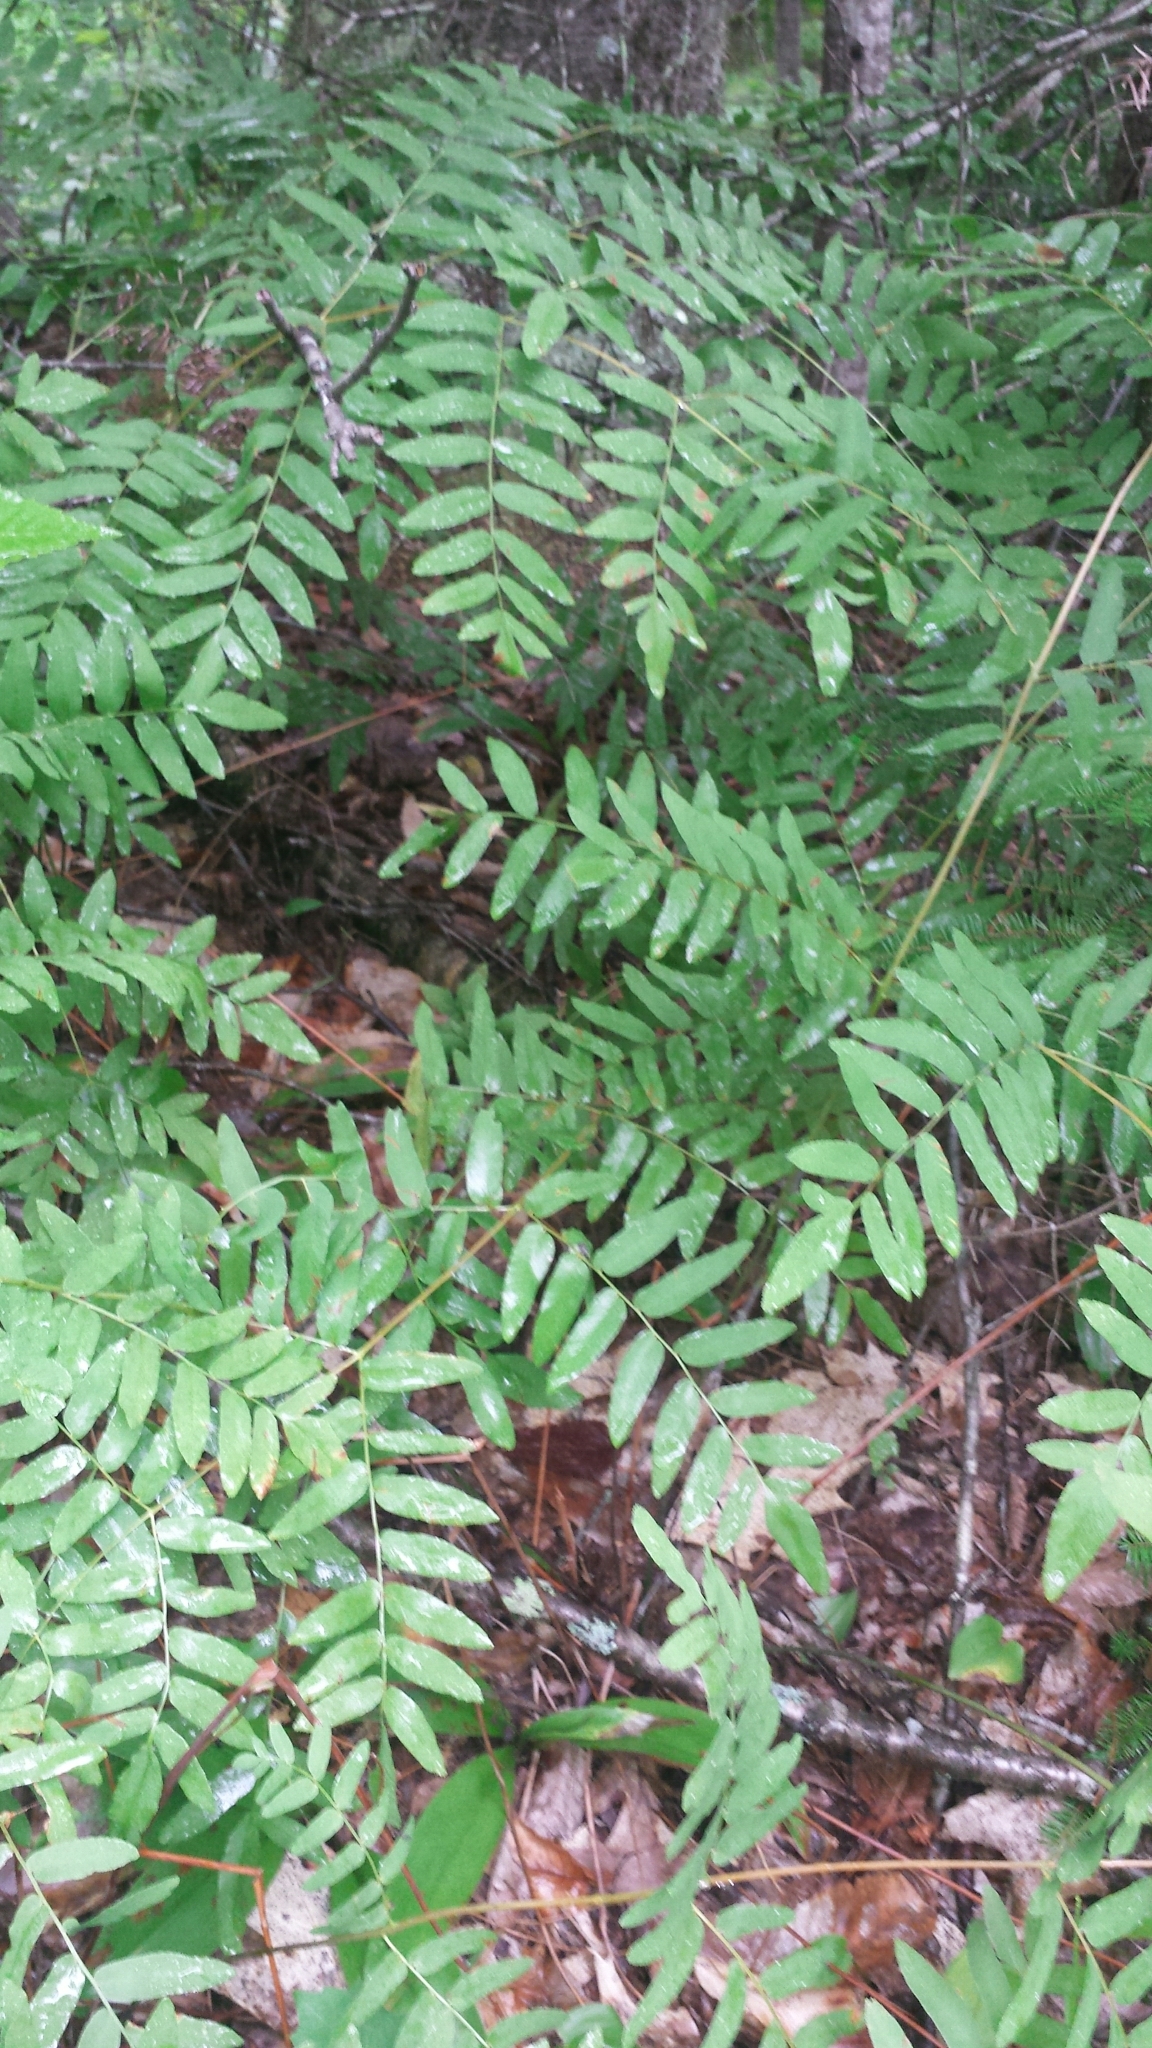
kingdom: Plantae
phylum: Tracheophyta
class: Polypodiopsida
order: Osmundales
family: Osmundaceae
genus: Osmunda
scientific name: Osmunda spectabilis
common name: American royal fern
